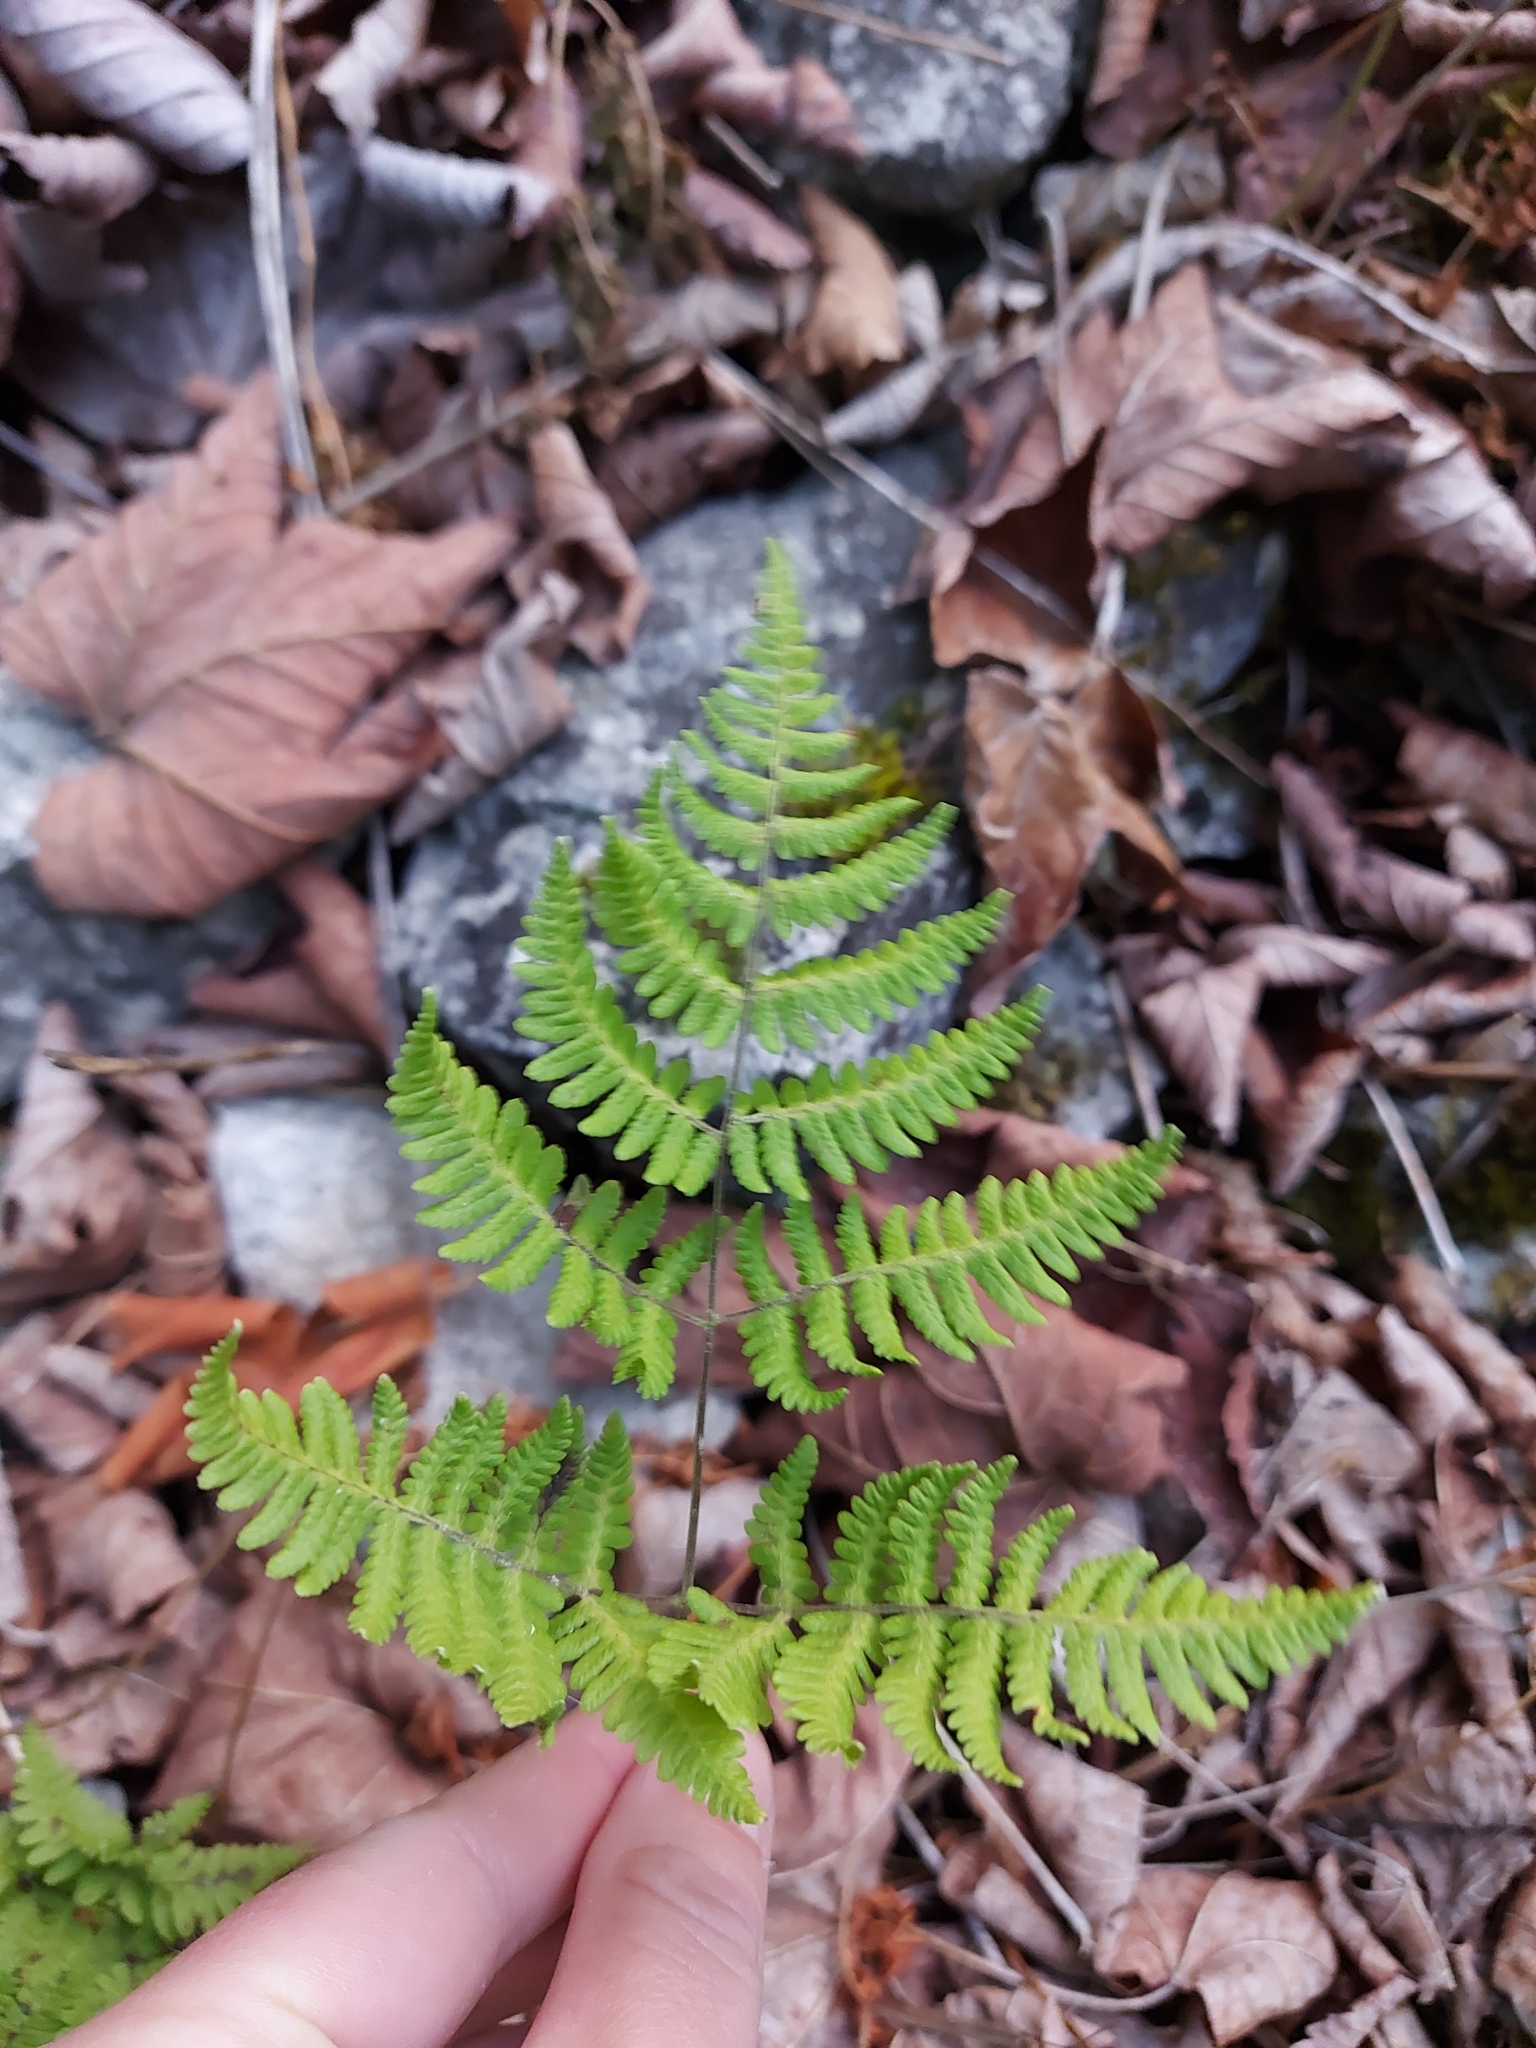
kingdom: Plantae
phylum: Tracheophyta
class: Polypodiopsida
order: Polypodiales
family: Cystopteridaceae
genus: Gymnocarpium
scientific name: Gymnocarpium robertianum
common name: Limestone fern
